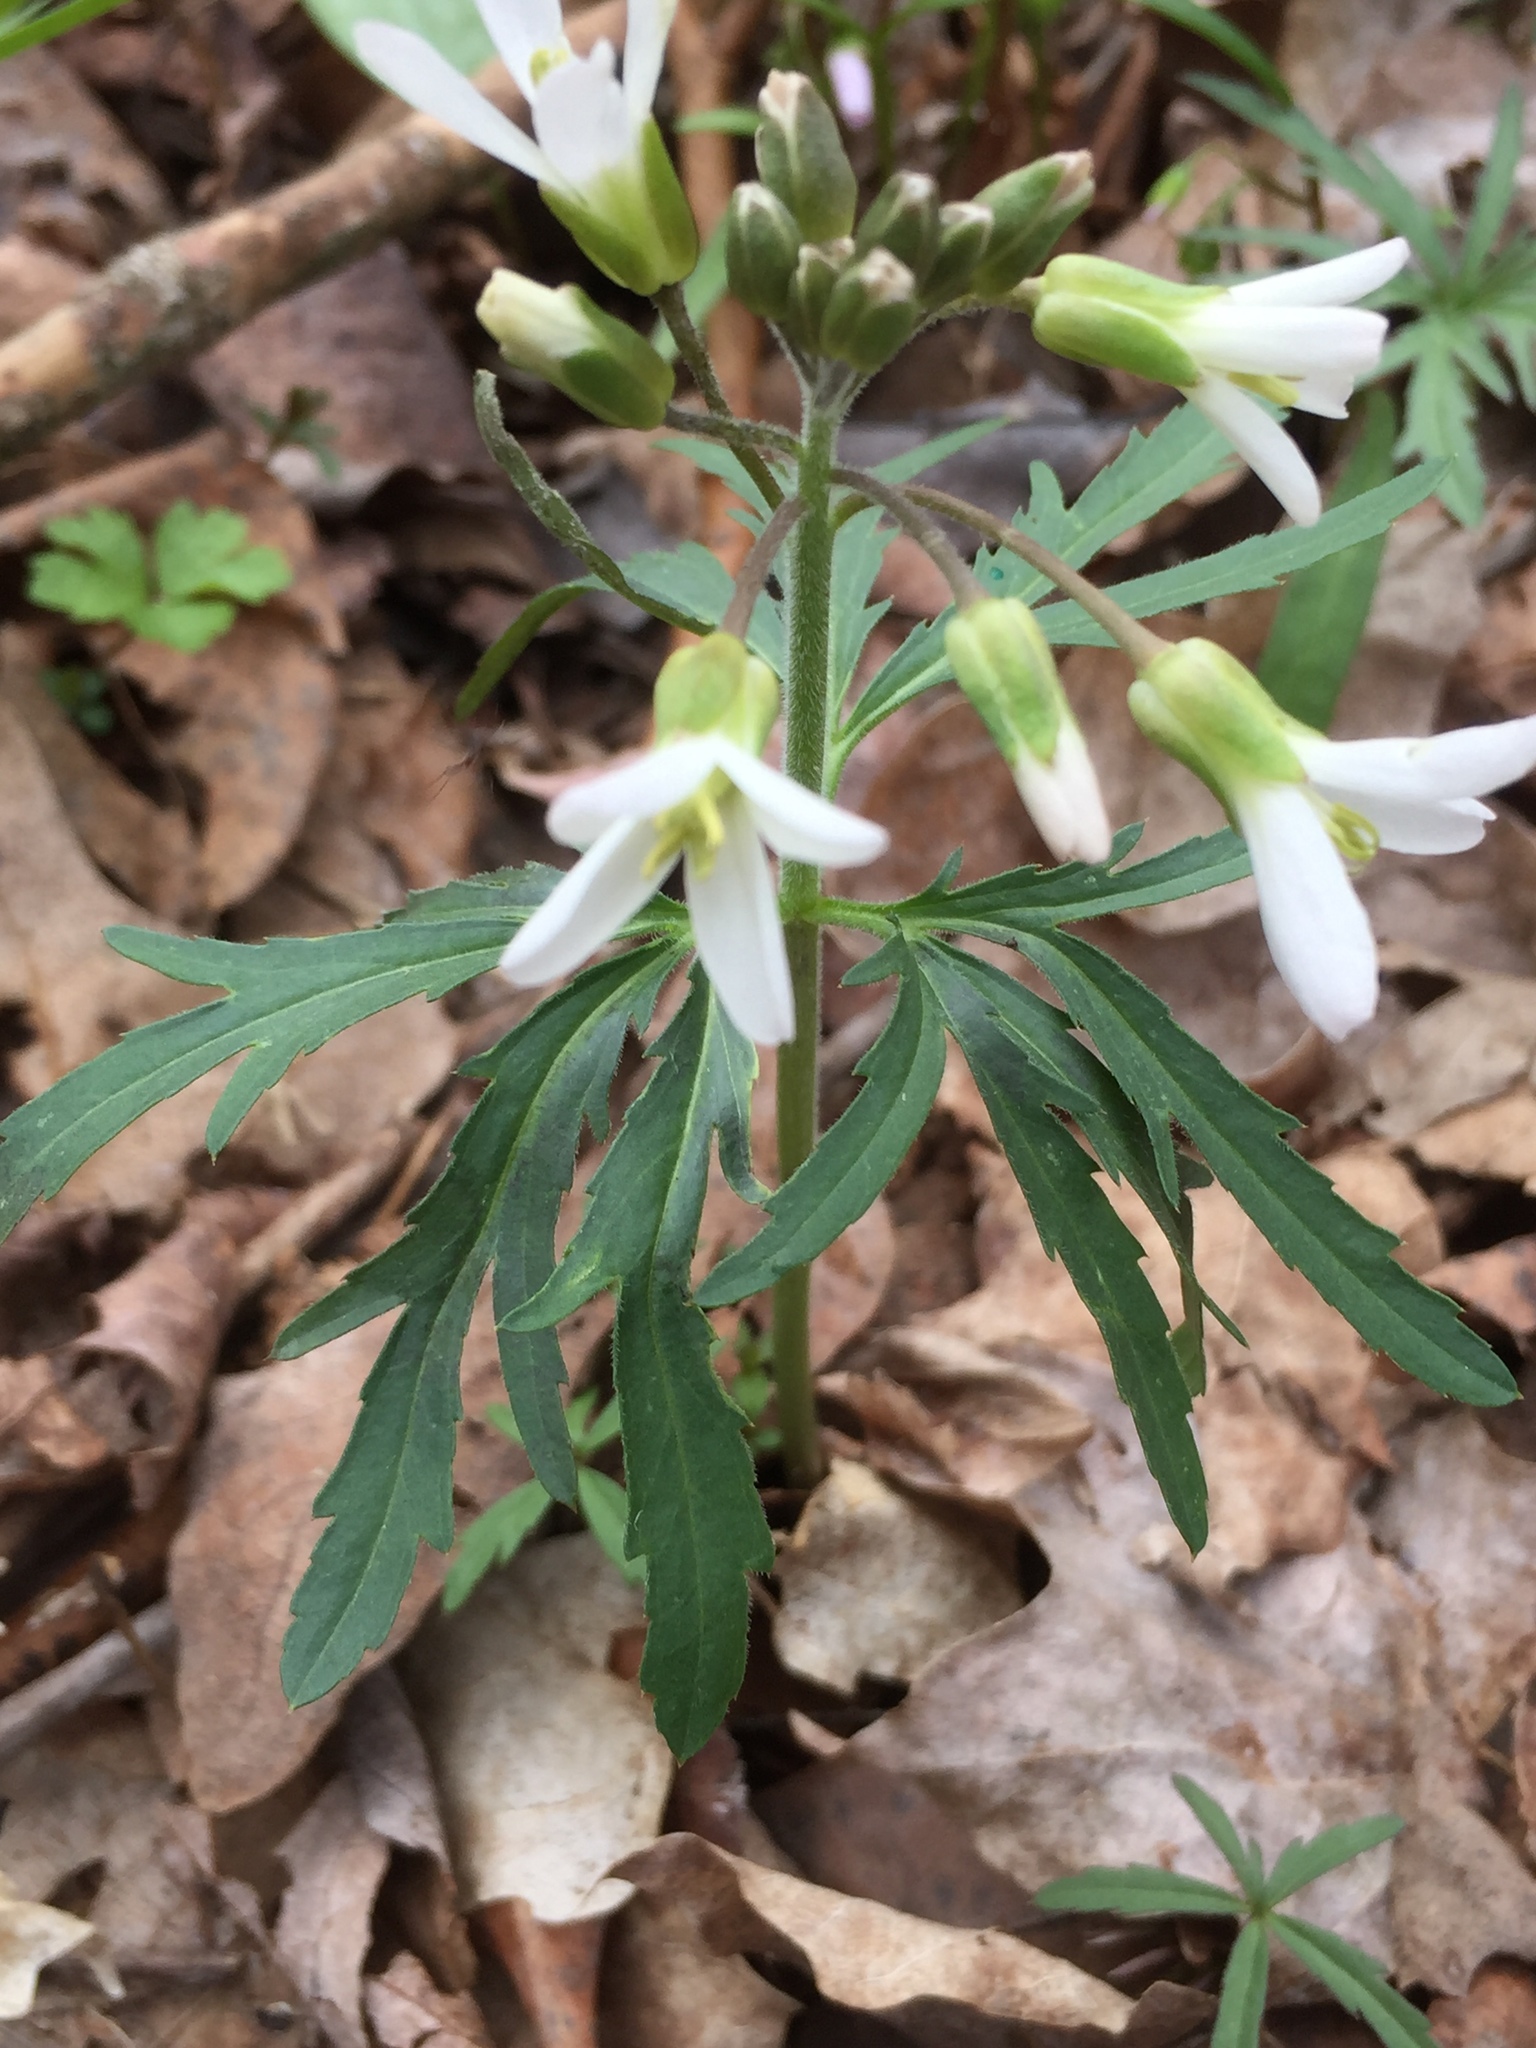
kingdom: Plantae
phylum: Tracheophyta
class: Magnoliopsida
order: Brassicales
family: Brassicaceae
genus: Cardamine
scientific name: Cardamine concatenata
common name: Cut-leaf toothcup
